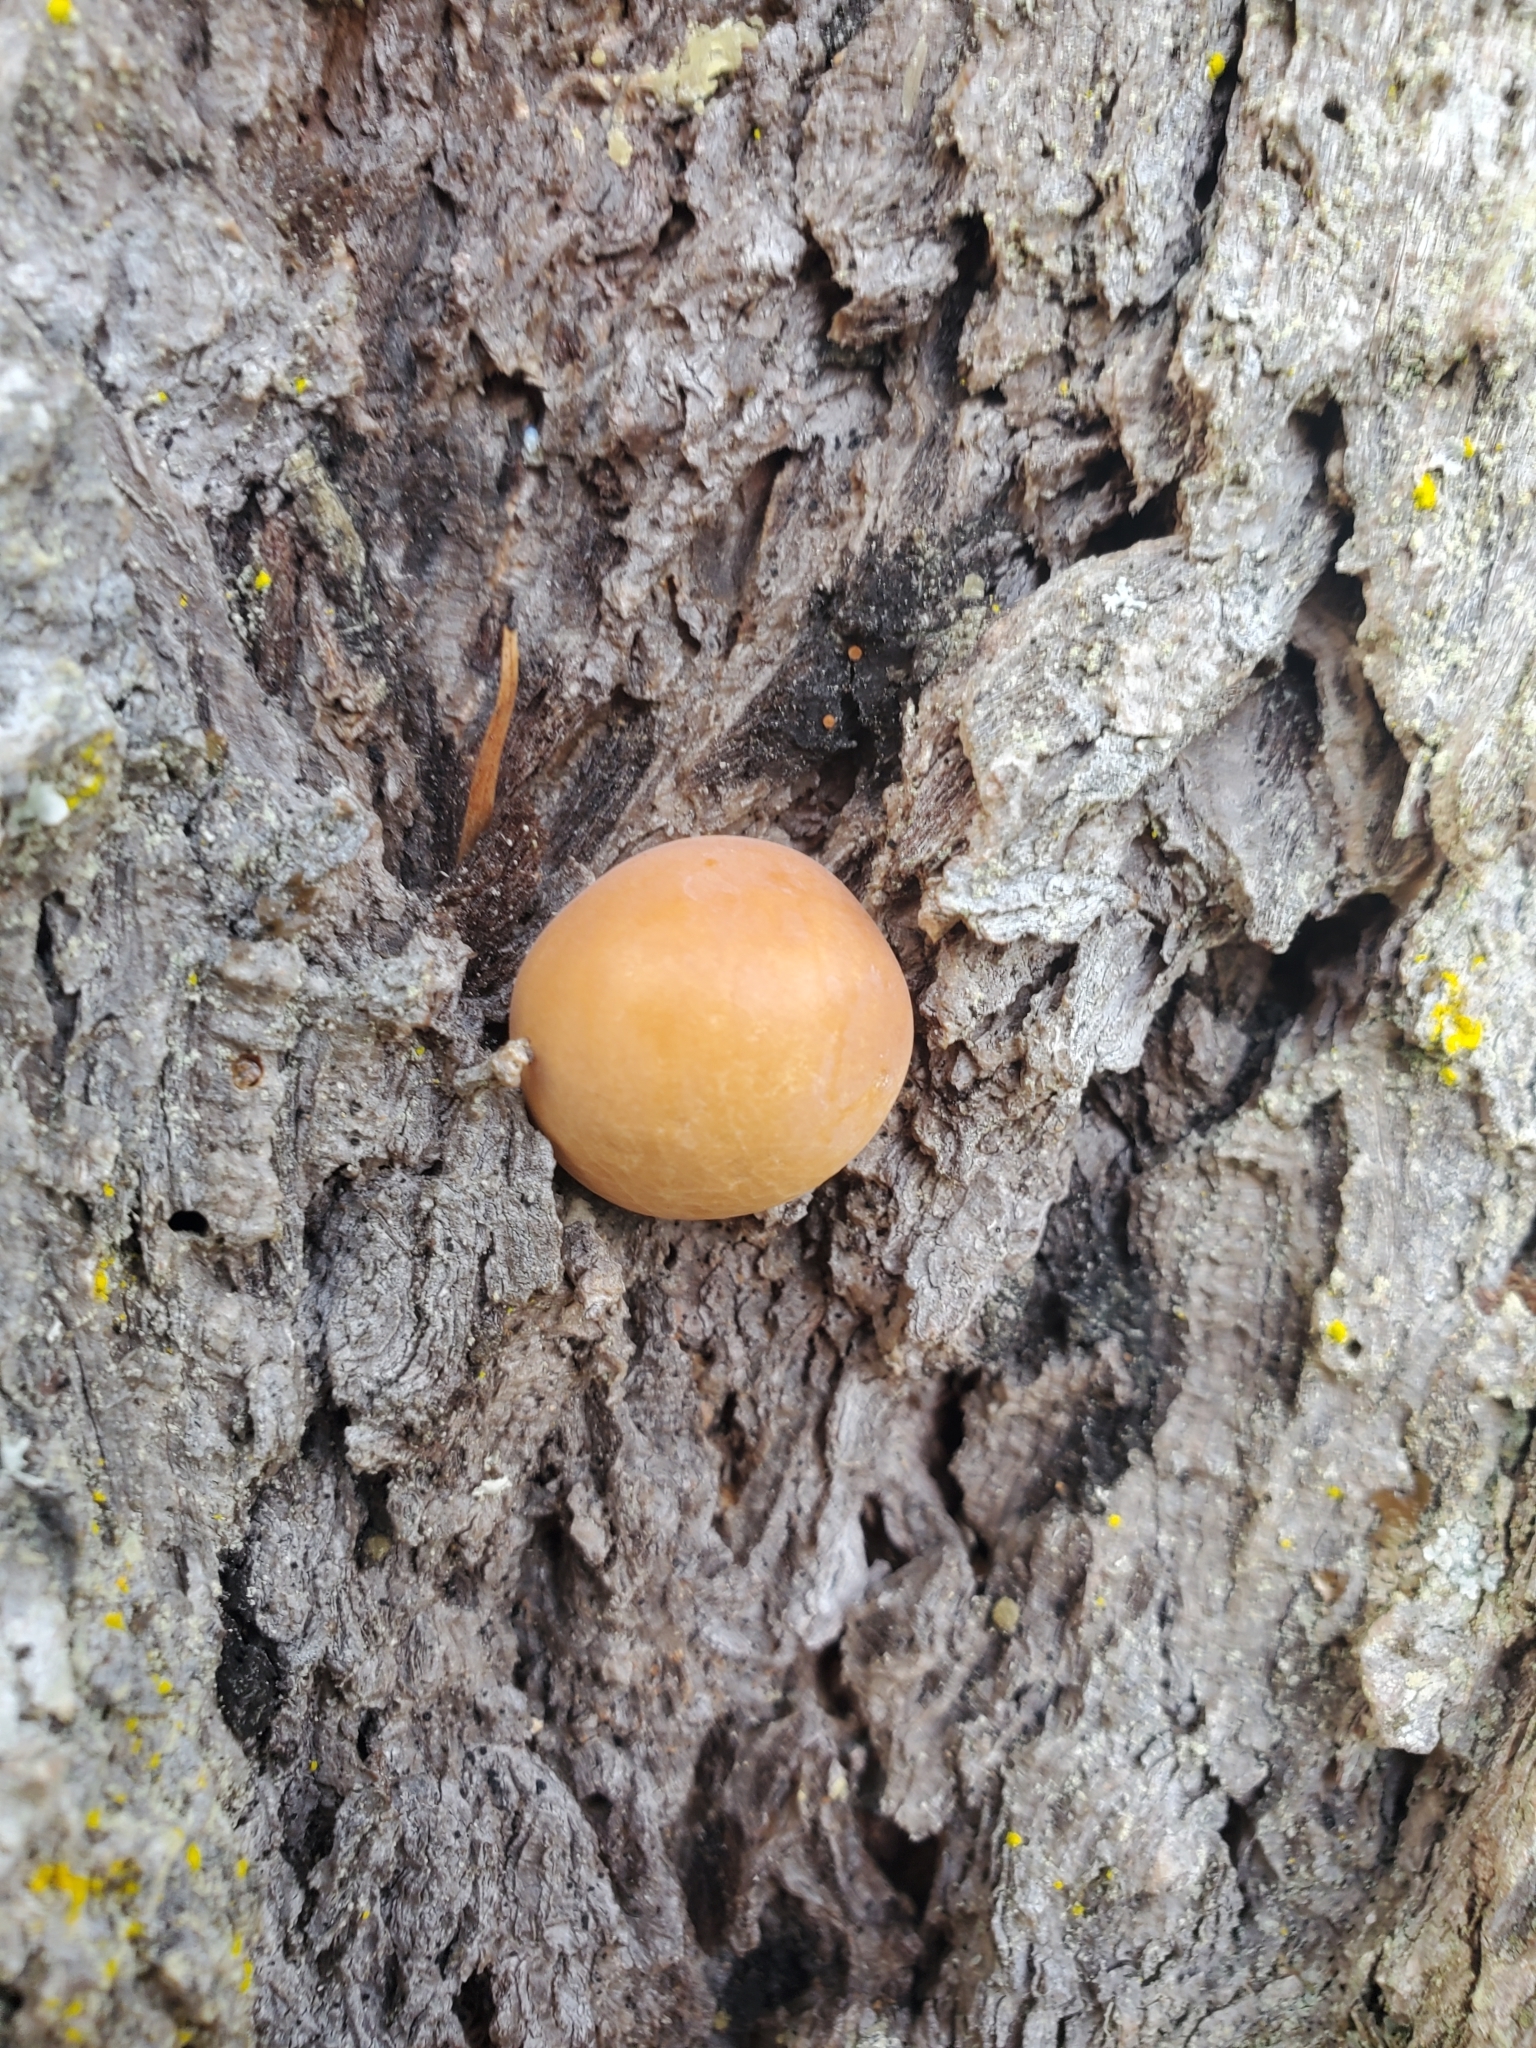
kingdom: Fungi
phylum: Basidiomycota
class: Agaricomycetes
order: Polyporales
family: Polyporaceae
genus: Cryptoporus
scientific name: Cryptoporus volvatus
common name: Veiled polypore
